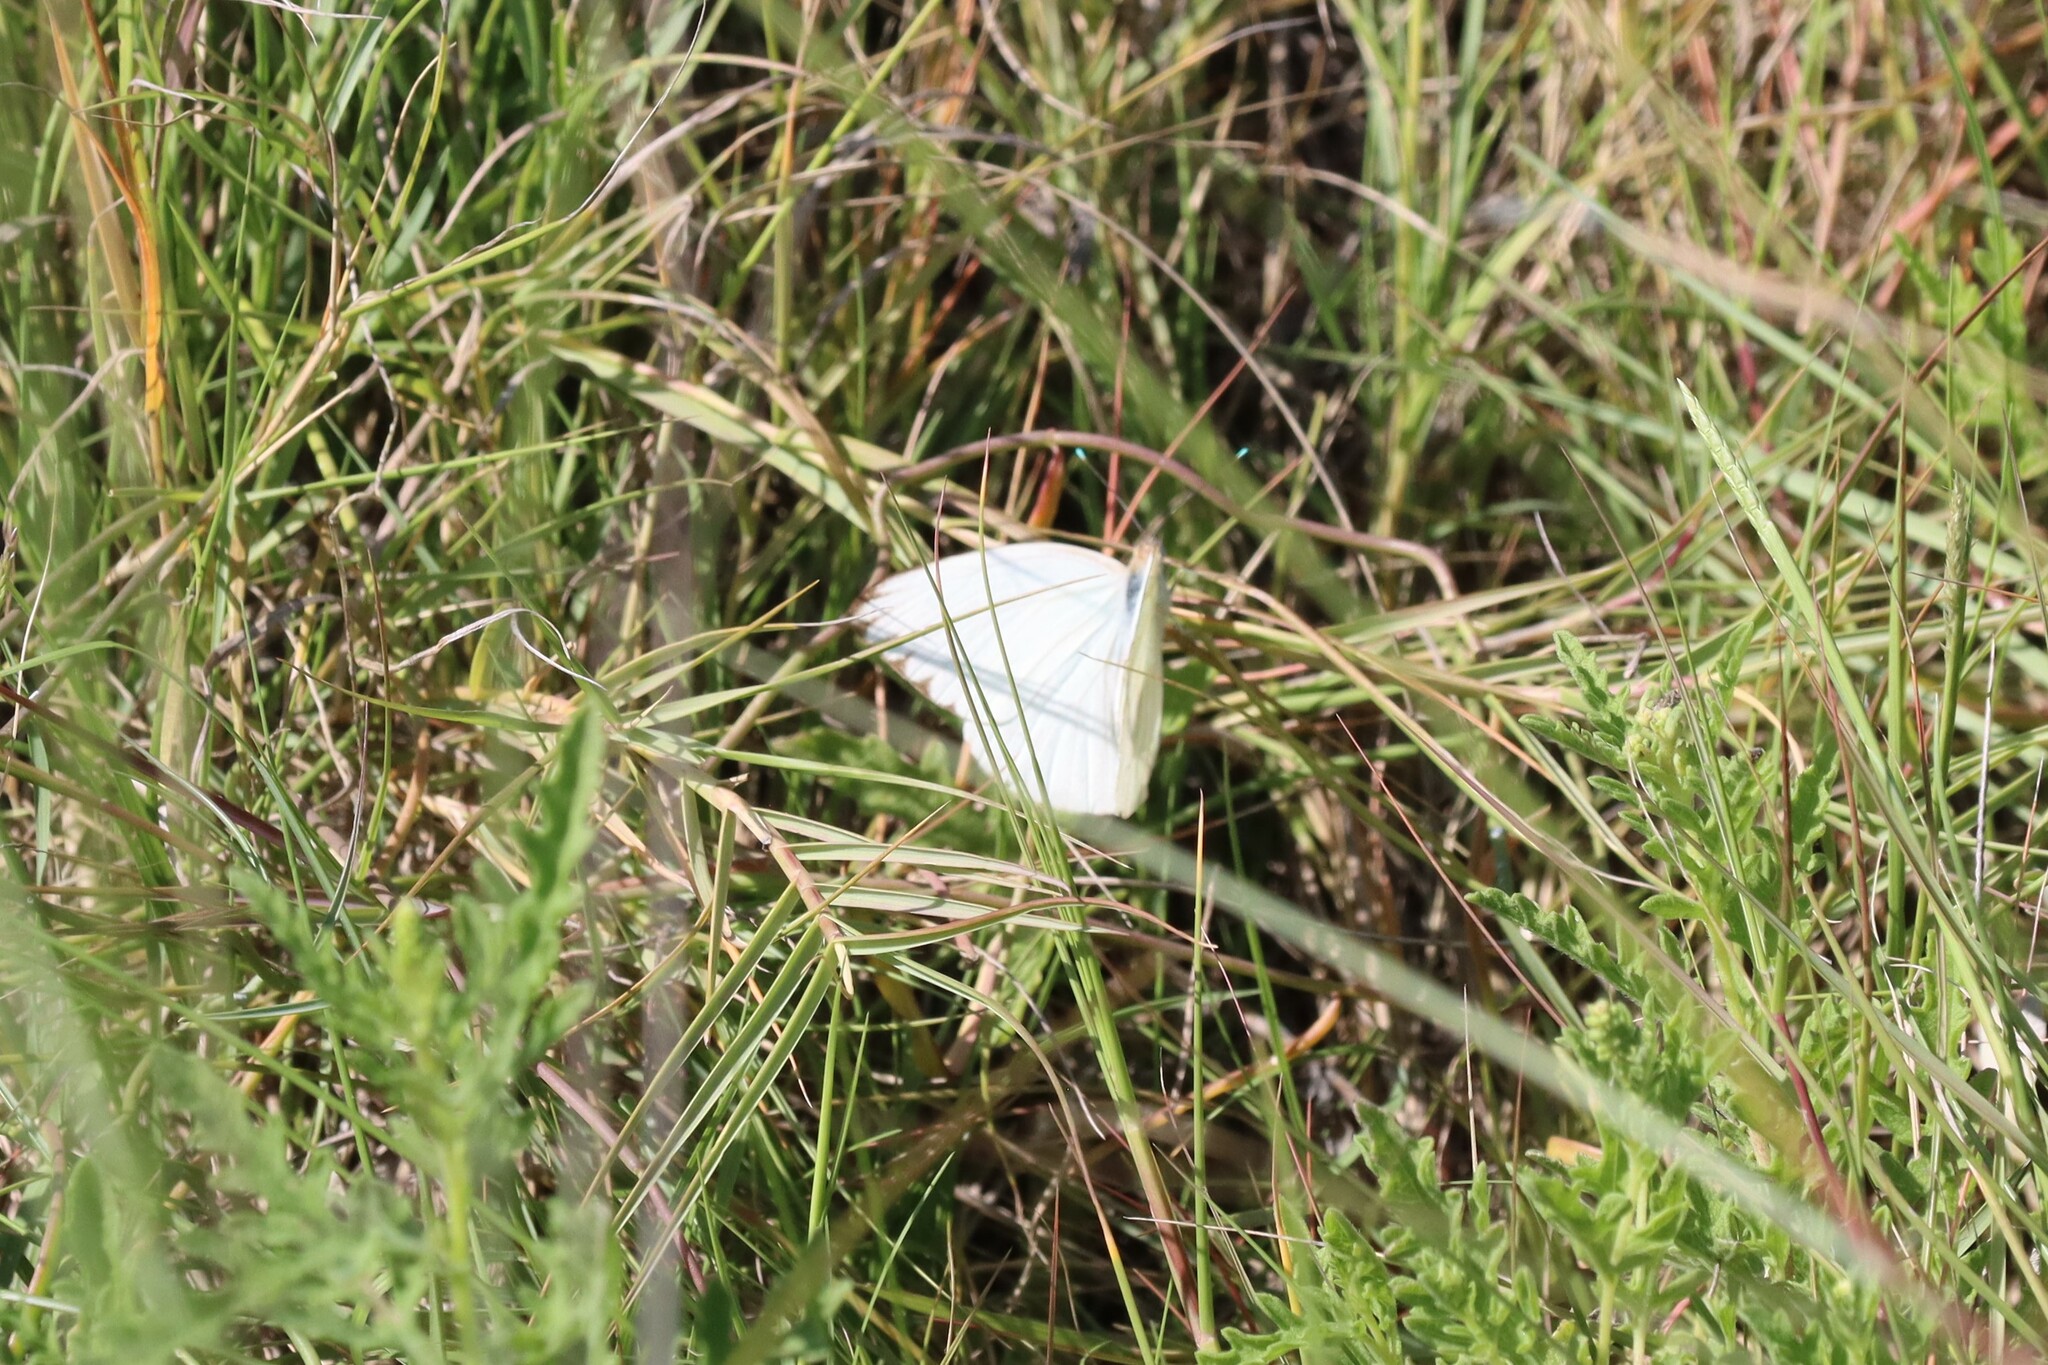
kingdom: Animalia
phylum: Arthropoda
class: Insecta
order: Lepidoptera
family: Pieridae
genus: Ascia
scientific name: Ascia monuste
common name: Great southern white
